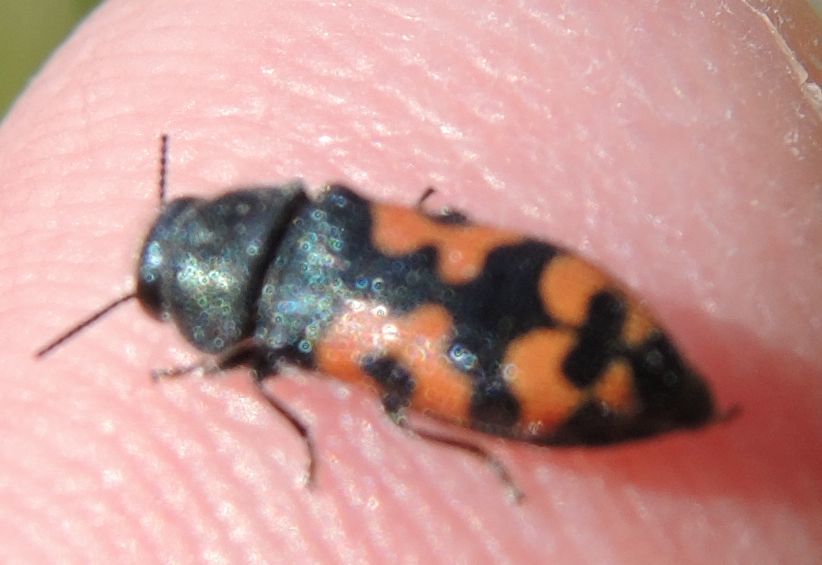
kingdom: Animalia
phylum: Arthropoda
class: Insecta
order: Coleoptera
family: Buprestidae
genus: Acmaeodera
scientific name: Acmaeodera ottomana
